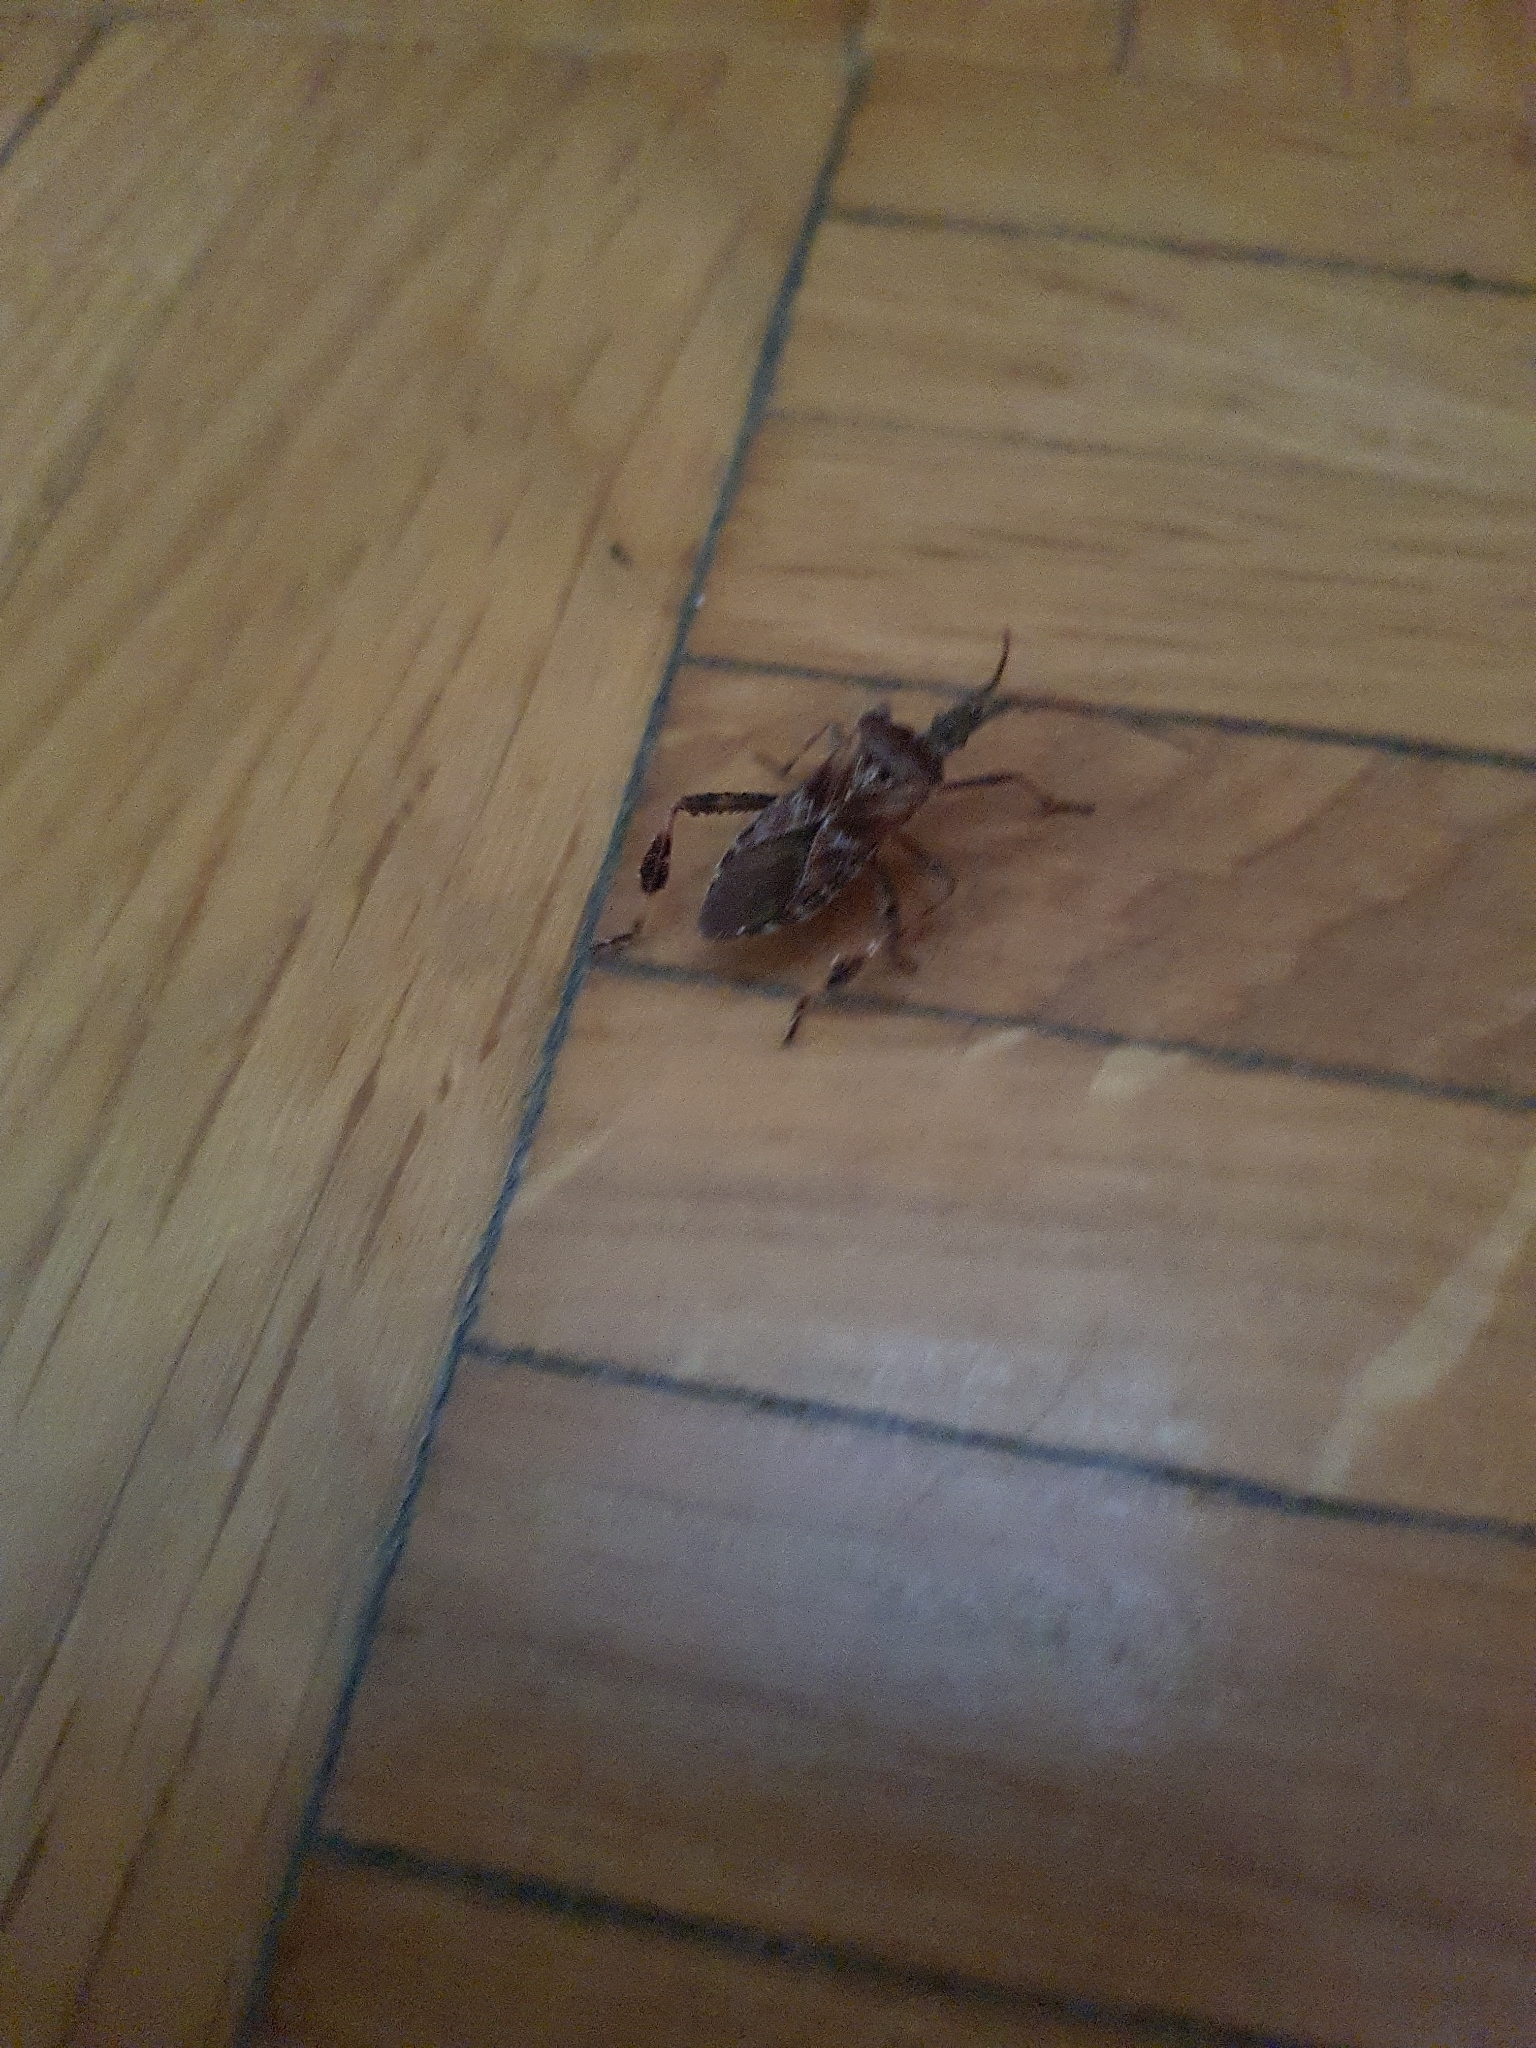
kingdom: Animalia
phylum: Arthropoda
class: Insecta
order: Hemiptera
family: Coreidae
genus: Leptoglossus
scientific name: Leptoglossus occidentalis
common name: Western conifer-seed bug
